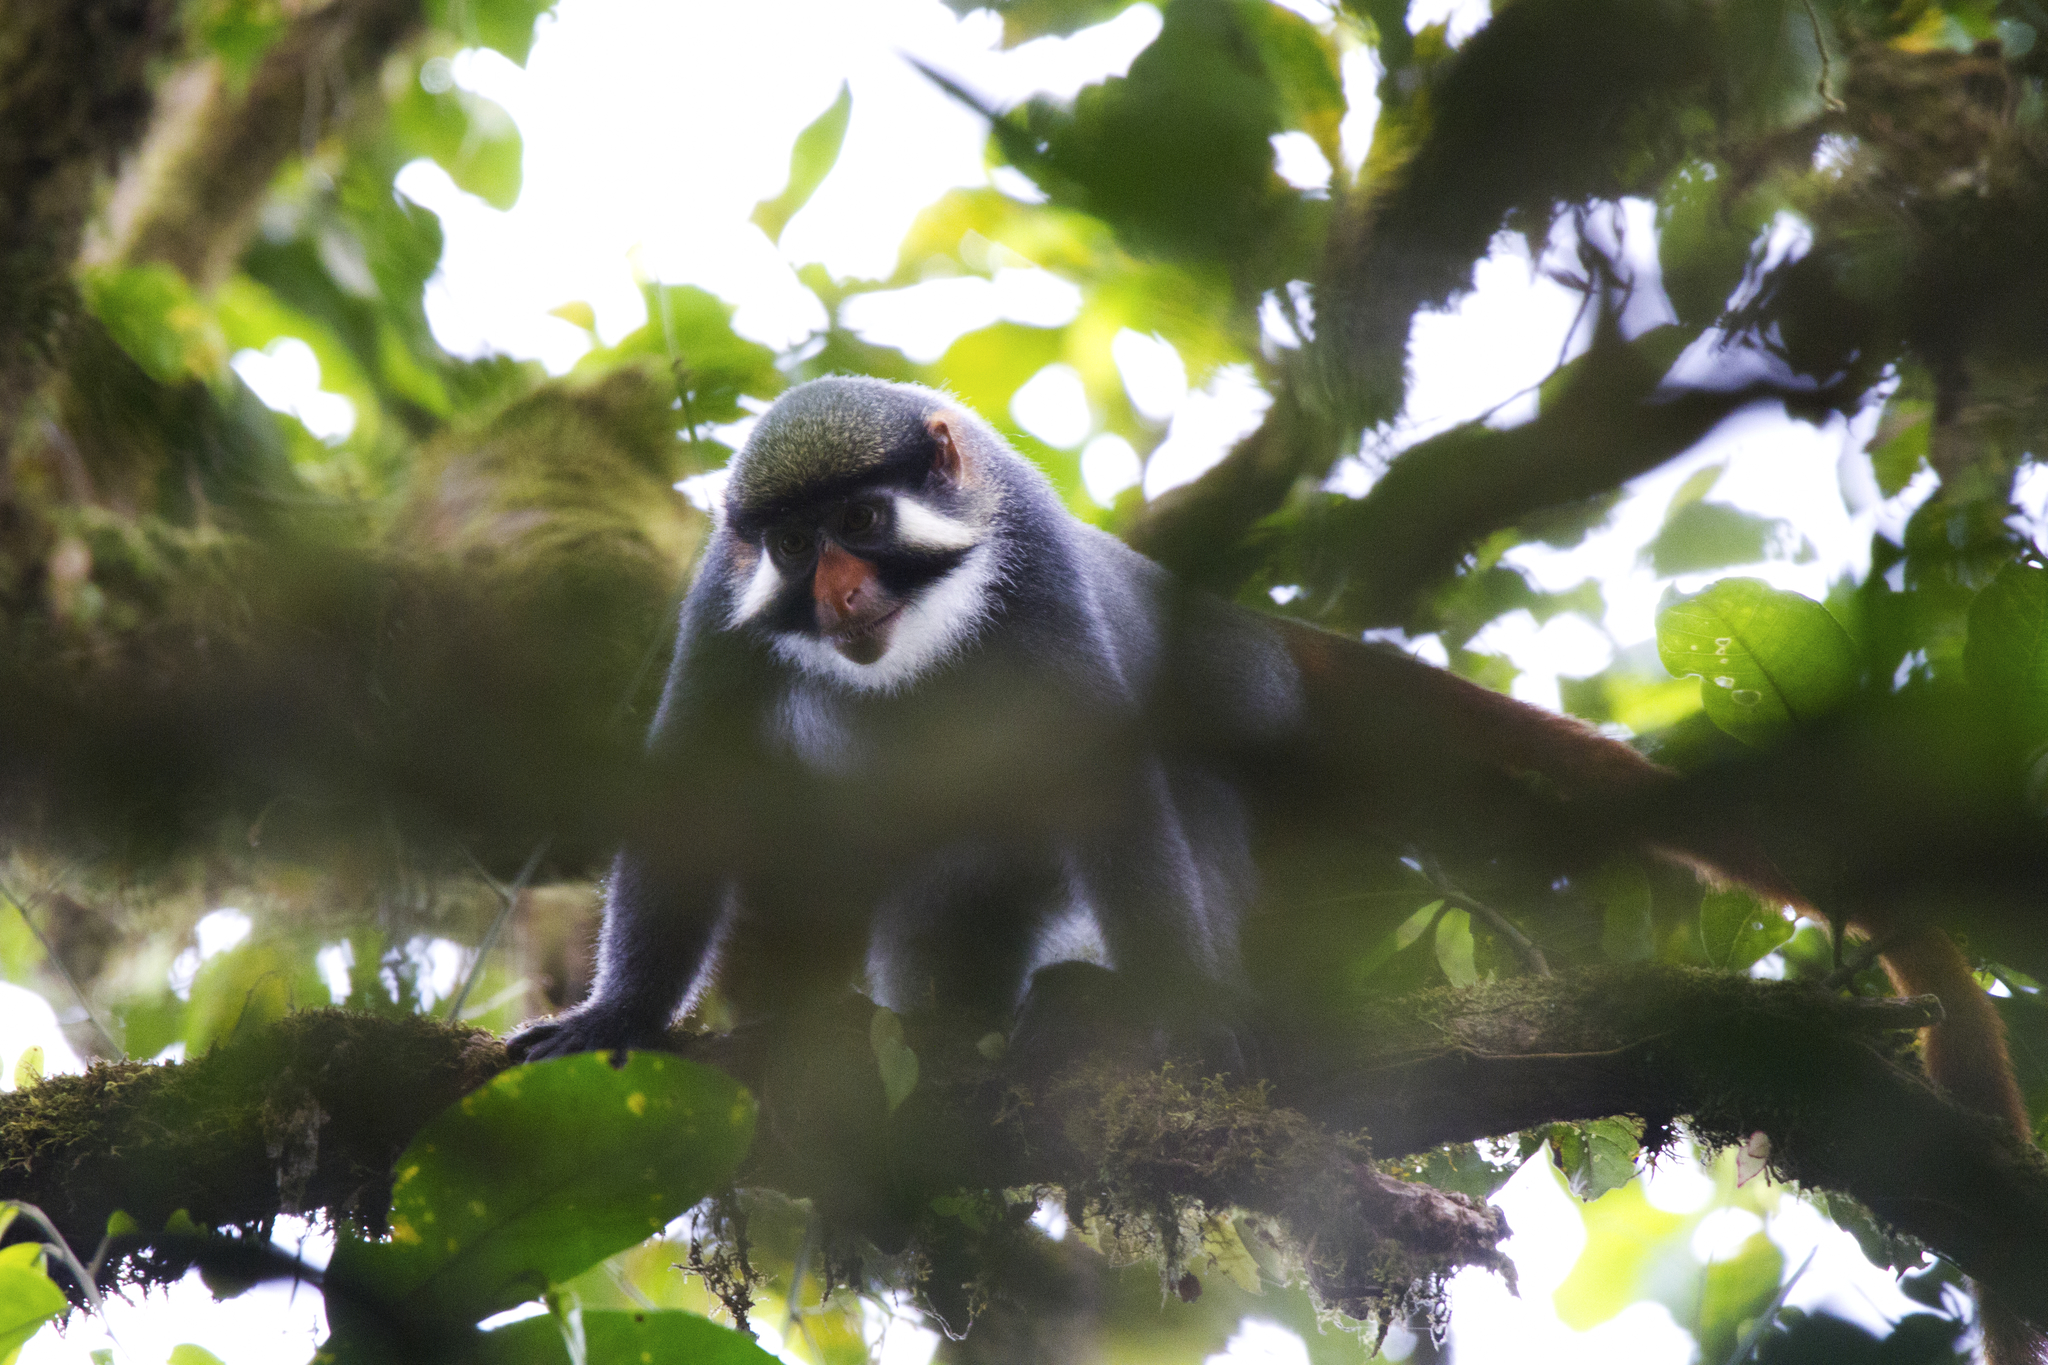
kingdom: Animalia
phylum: Chordata
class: Mammalia
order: Primates
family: Cercopithecidae
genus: Cercopithecus
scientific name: Cercopithecus erythrotis
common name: Red-eared guenon
